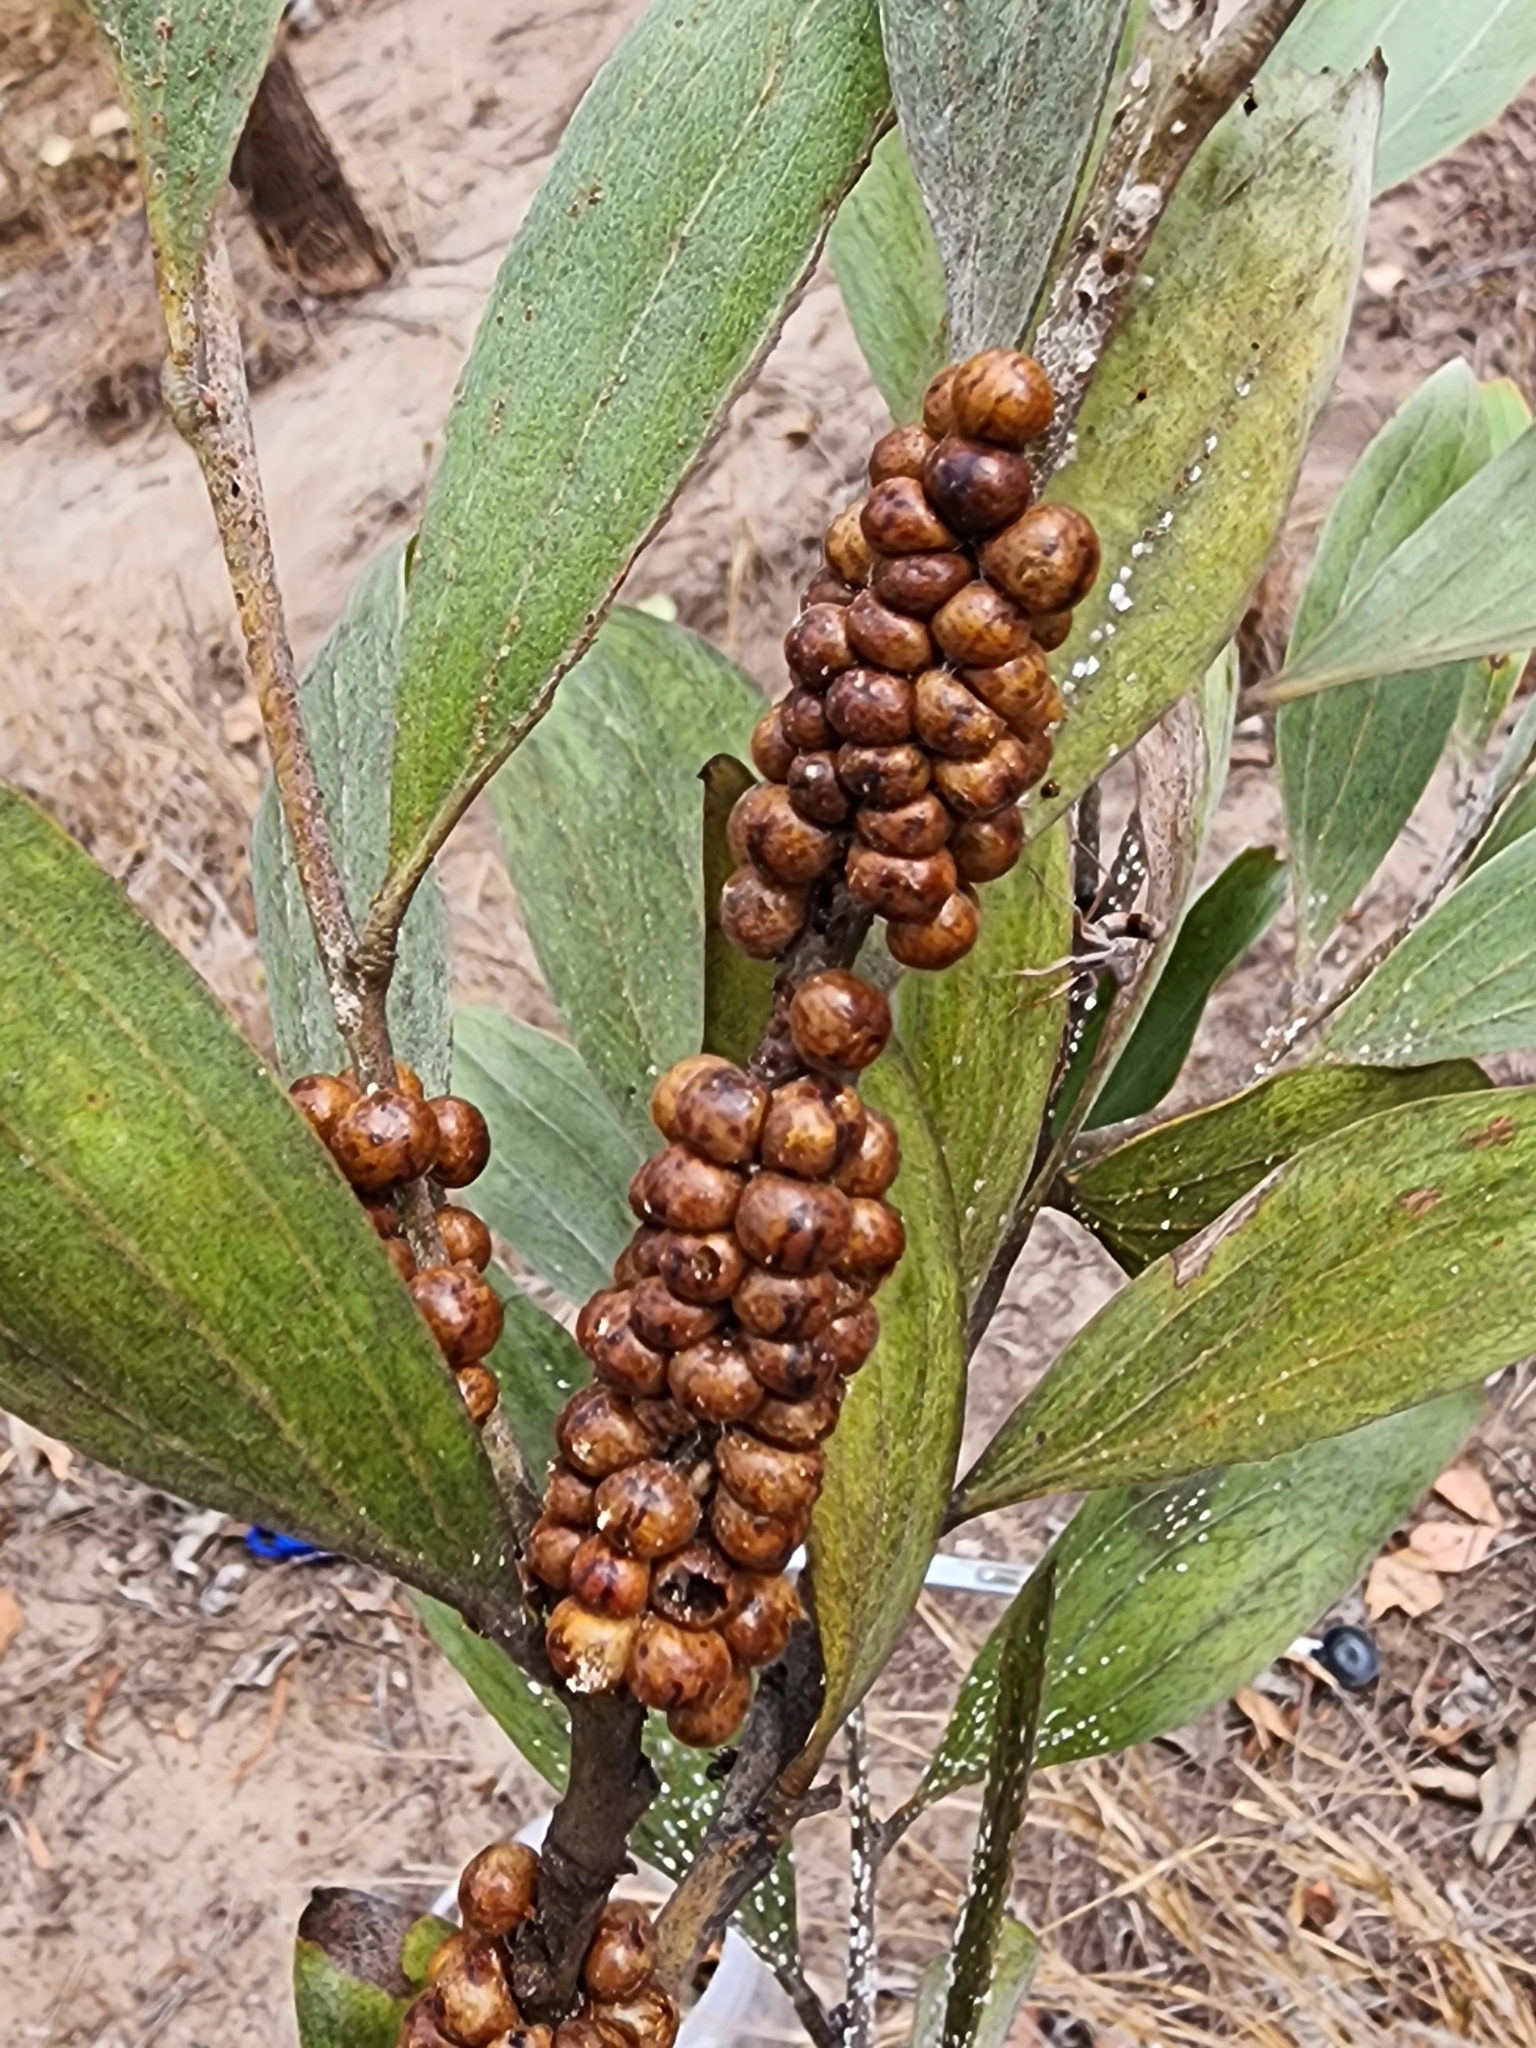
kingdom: Animalia
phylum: Arthropoda
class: Insecta
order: Hemiptera
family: Coccidae
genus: Cryptes
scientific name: Cryptes baccatus
